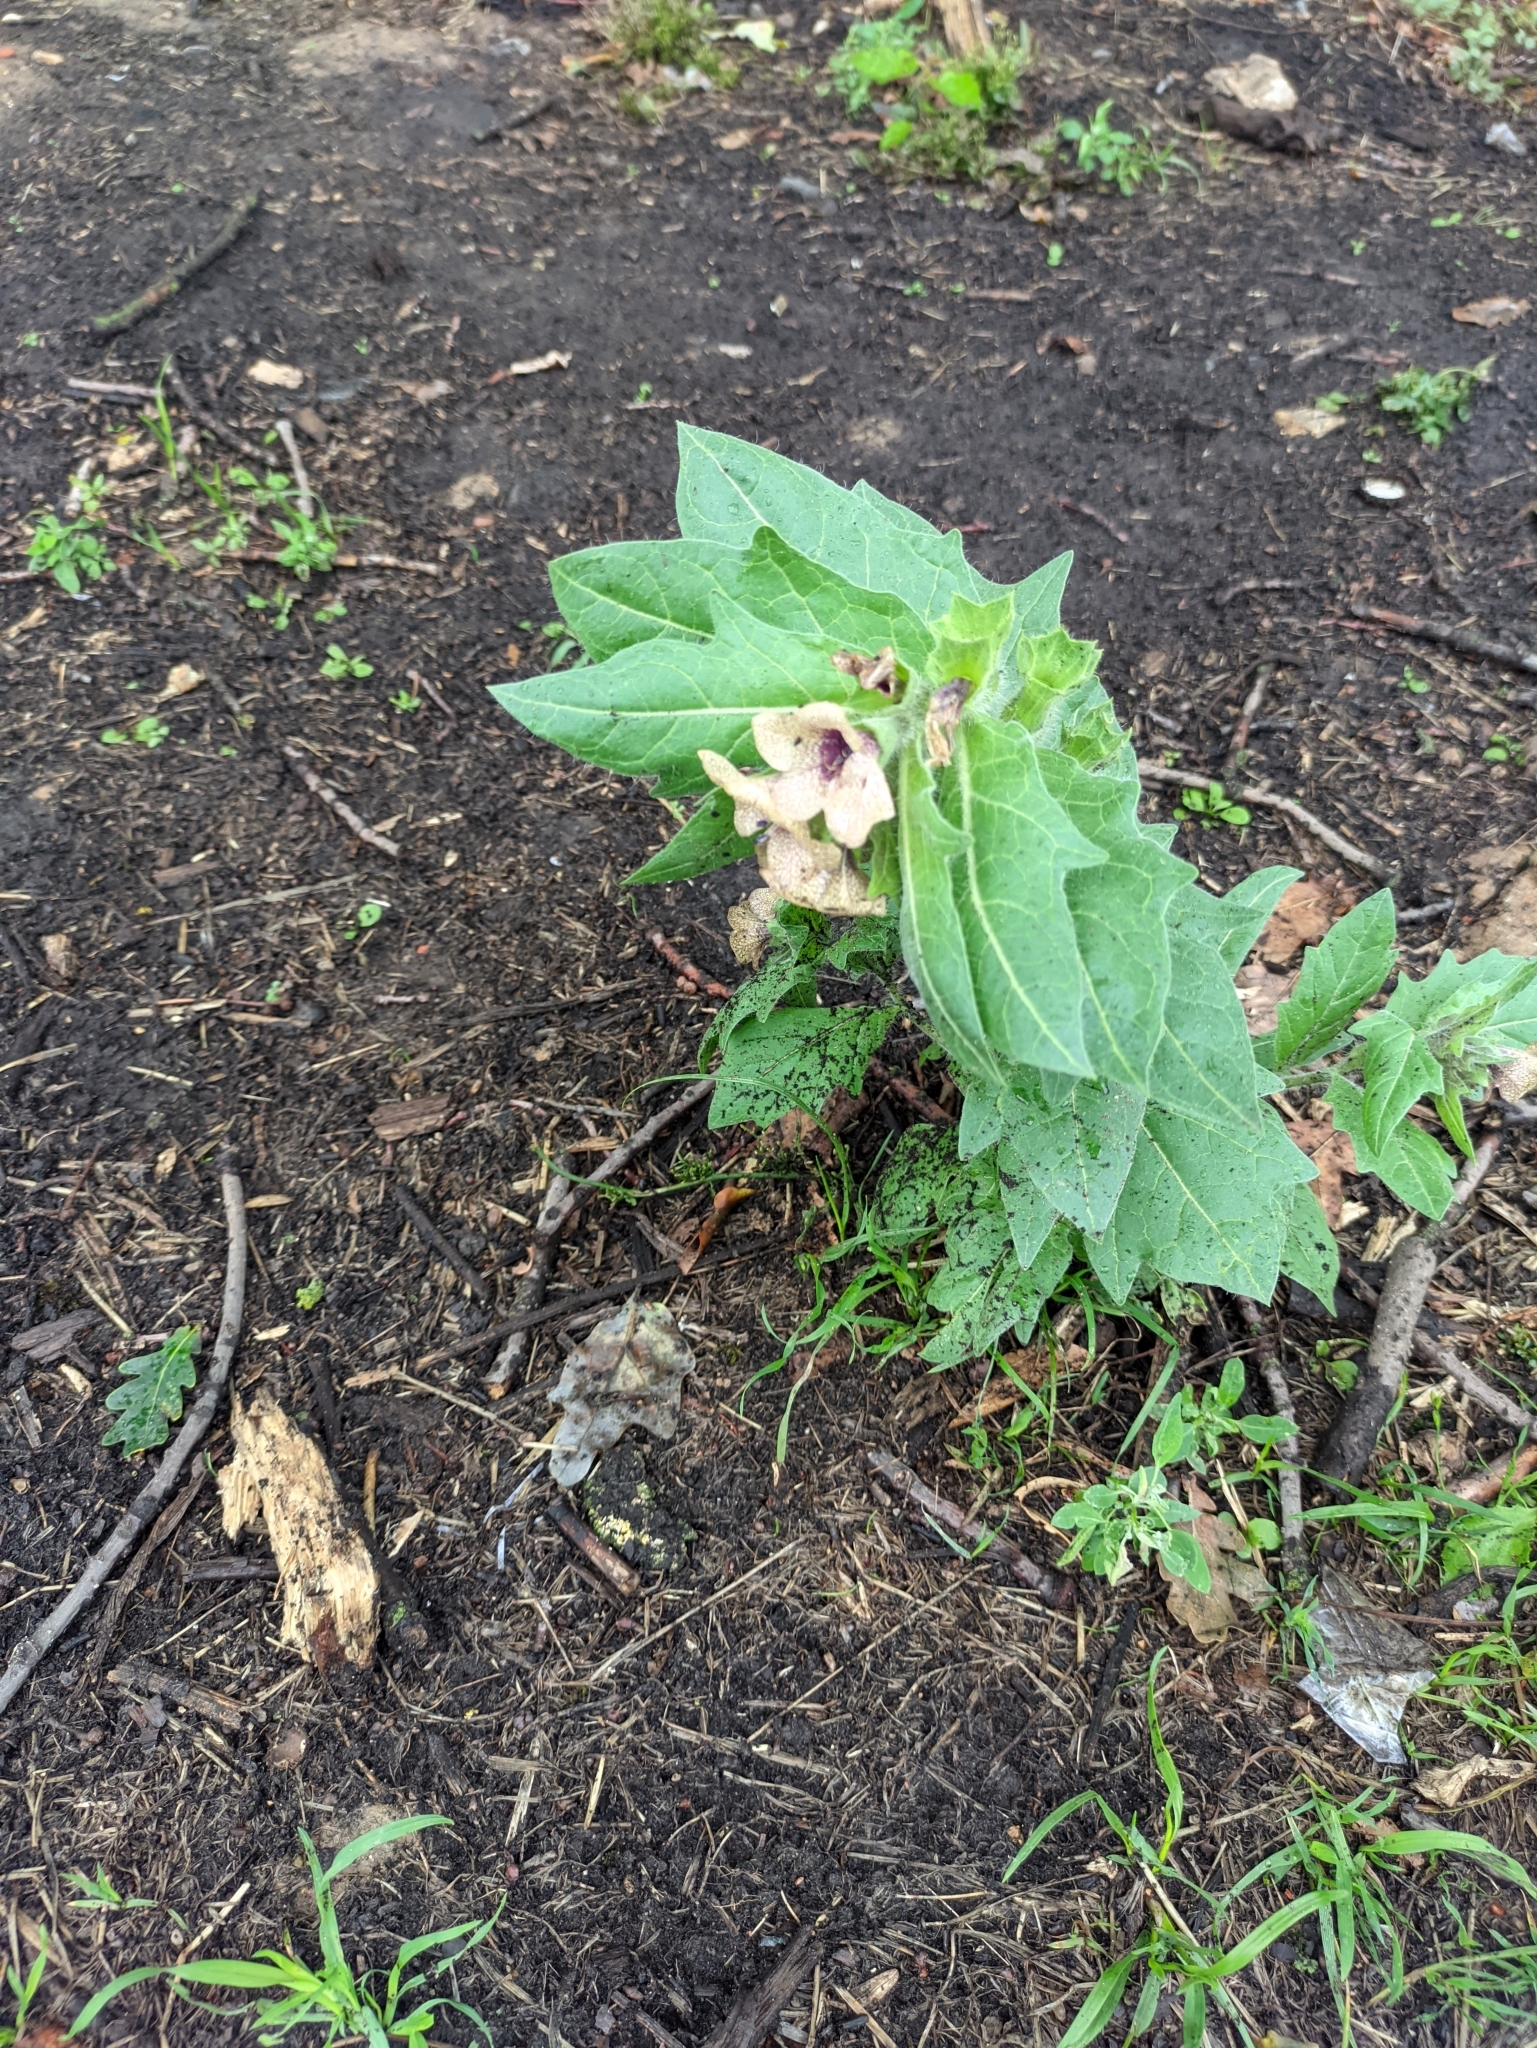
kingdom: Plantae
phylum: Tracheophyta
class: Magnoliopsida
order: Solanales
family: Solanaceae
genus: Hyoscyamus
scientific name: Hyoscyamus niger
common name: Henbane
